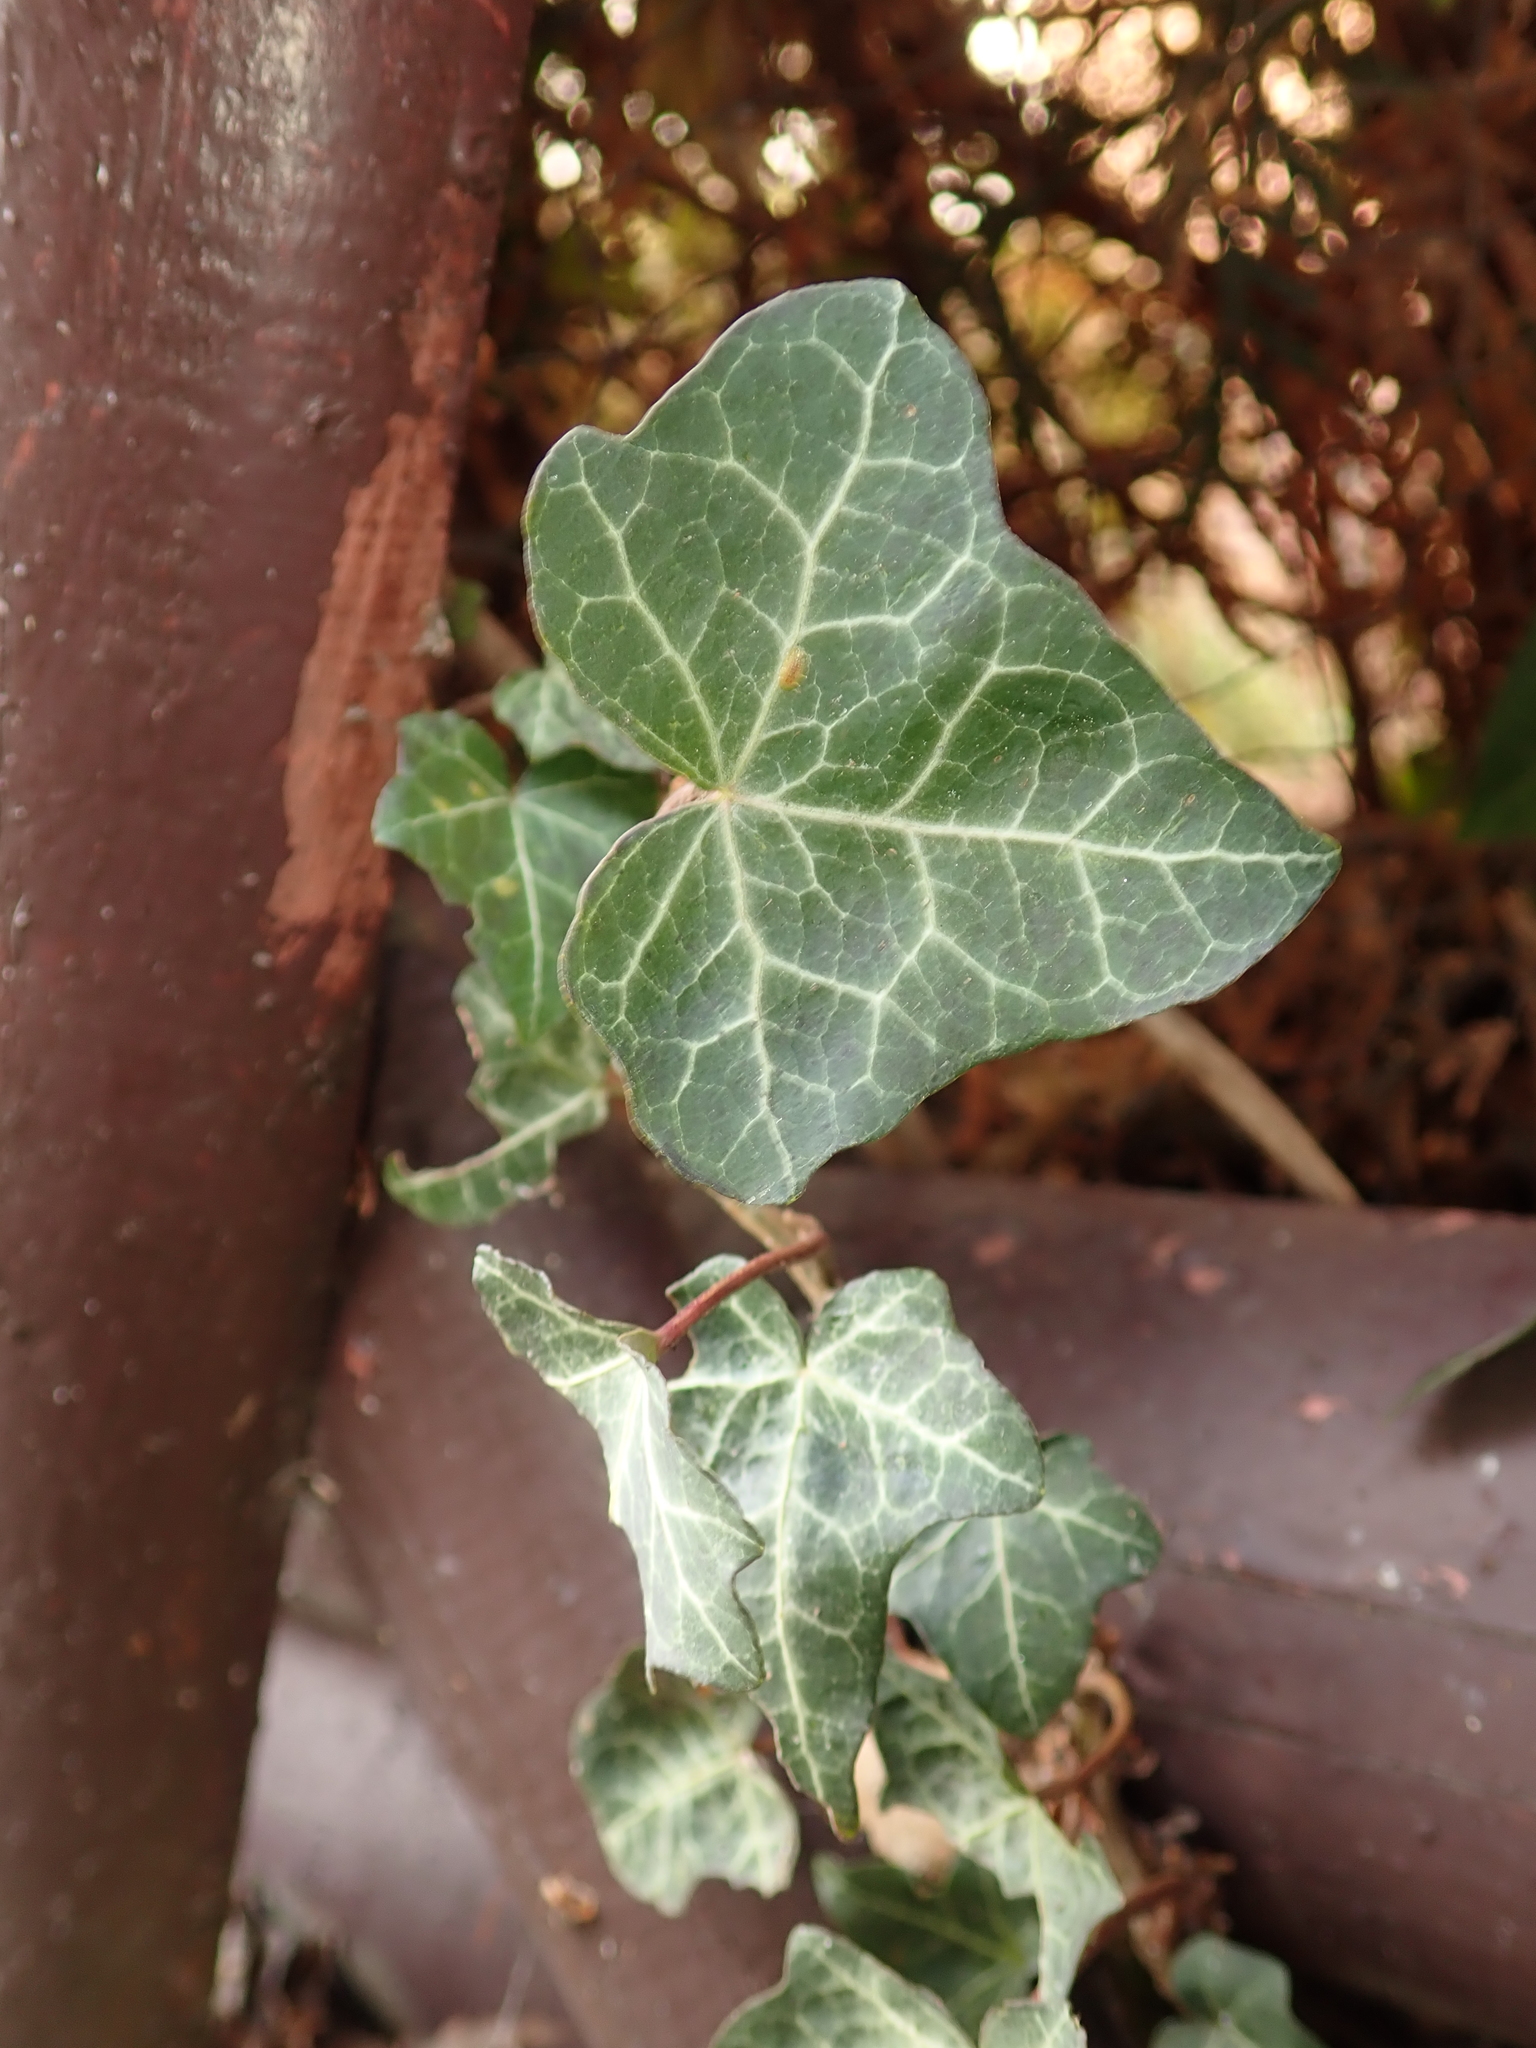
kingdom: Plantae
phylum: Tracheophyta
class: Magnoliopsida
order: Apiales
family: Araliaceae
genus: Hedera
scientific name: Hedera helix
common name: Ivy
